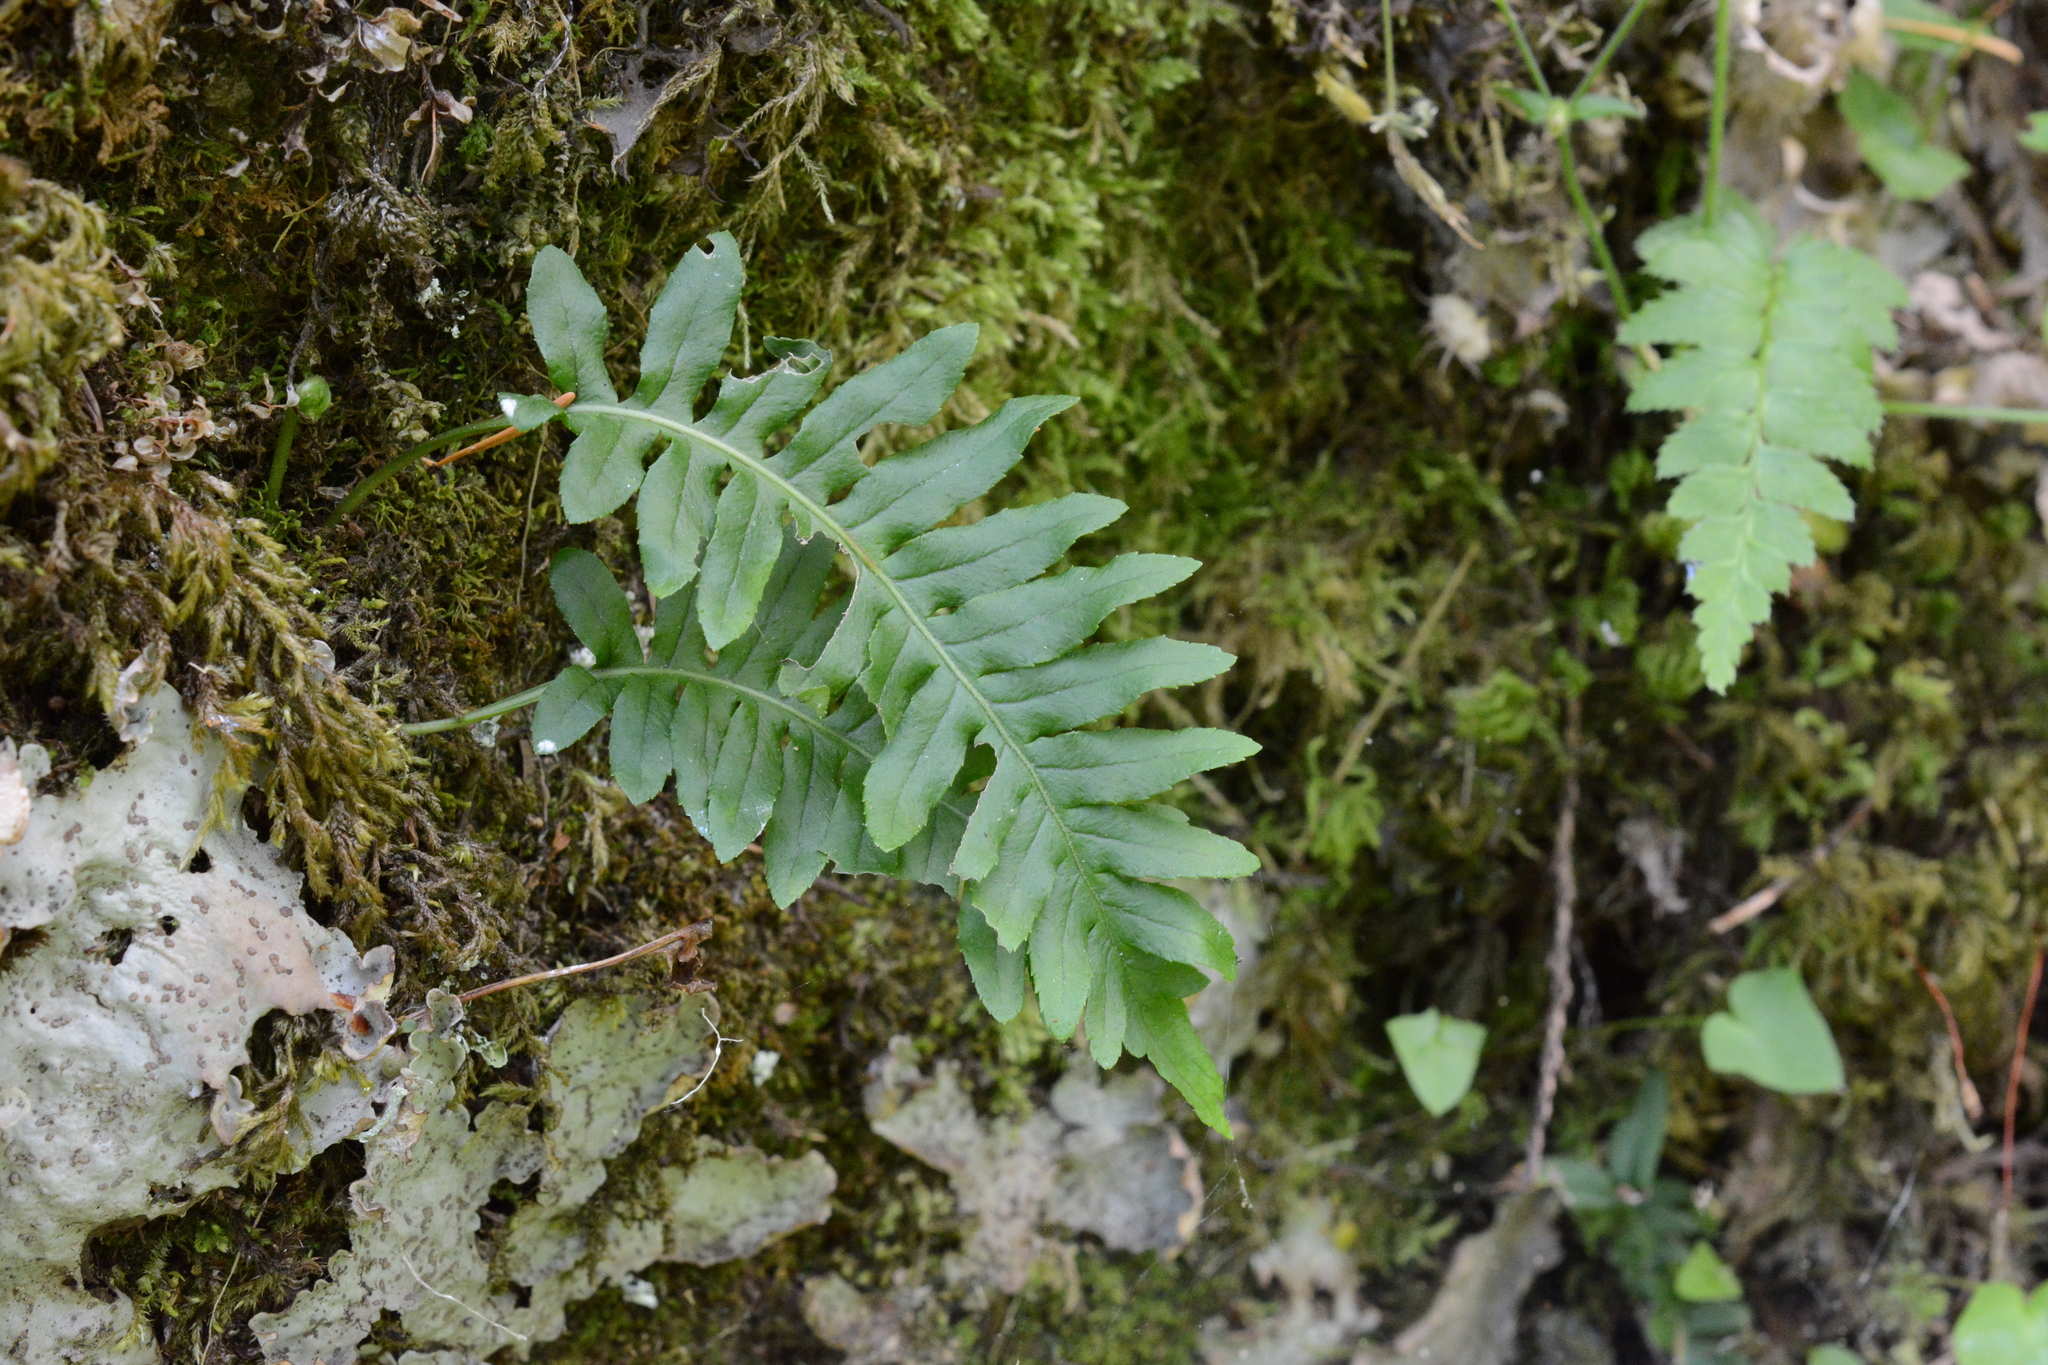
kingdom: Plantae
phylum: Tracheophyta
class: Polypodiopsida
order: Polypodiales
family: Polypodiaceae
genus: Polypodium
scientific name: Polypodium glycyrrhiza
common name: Licorice fern
